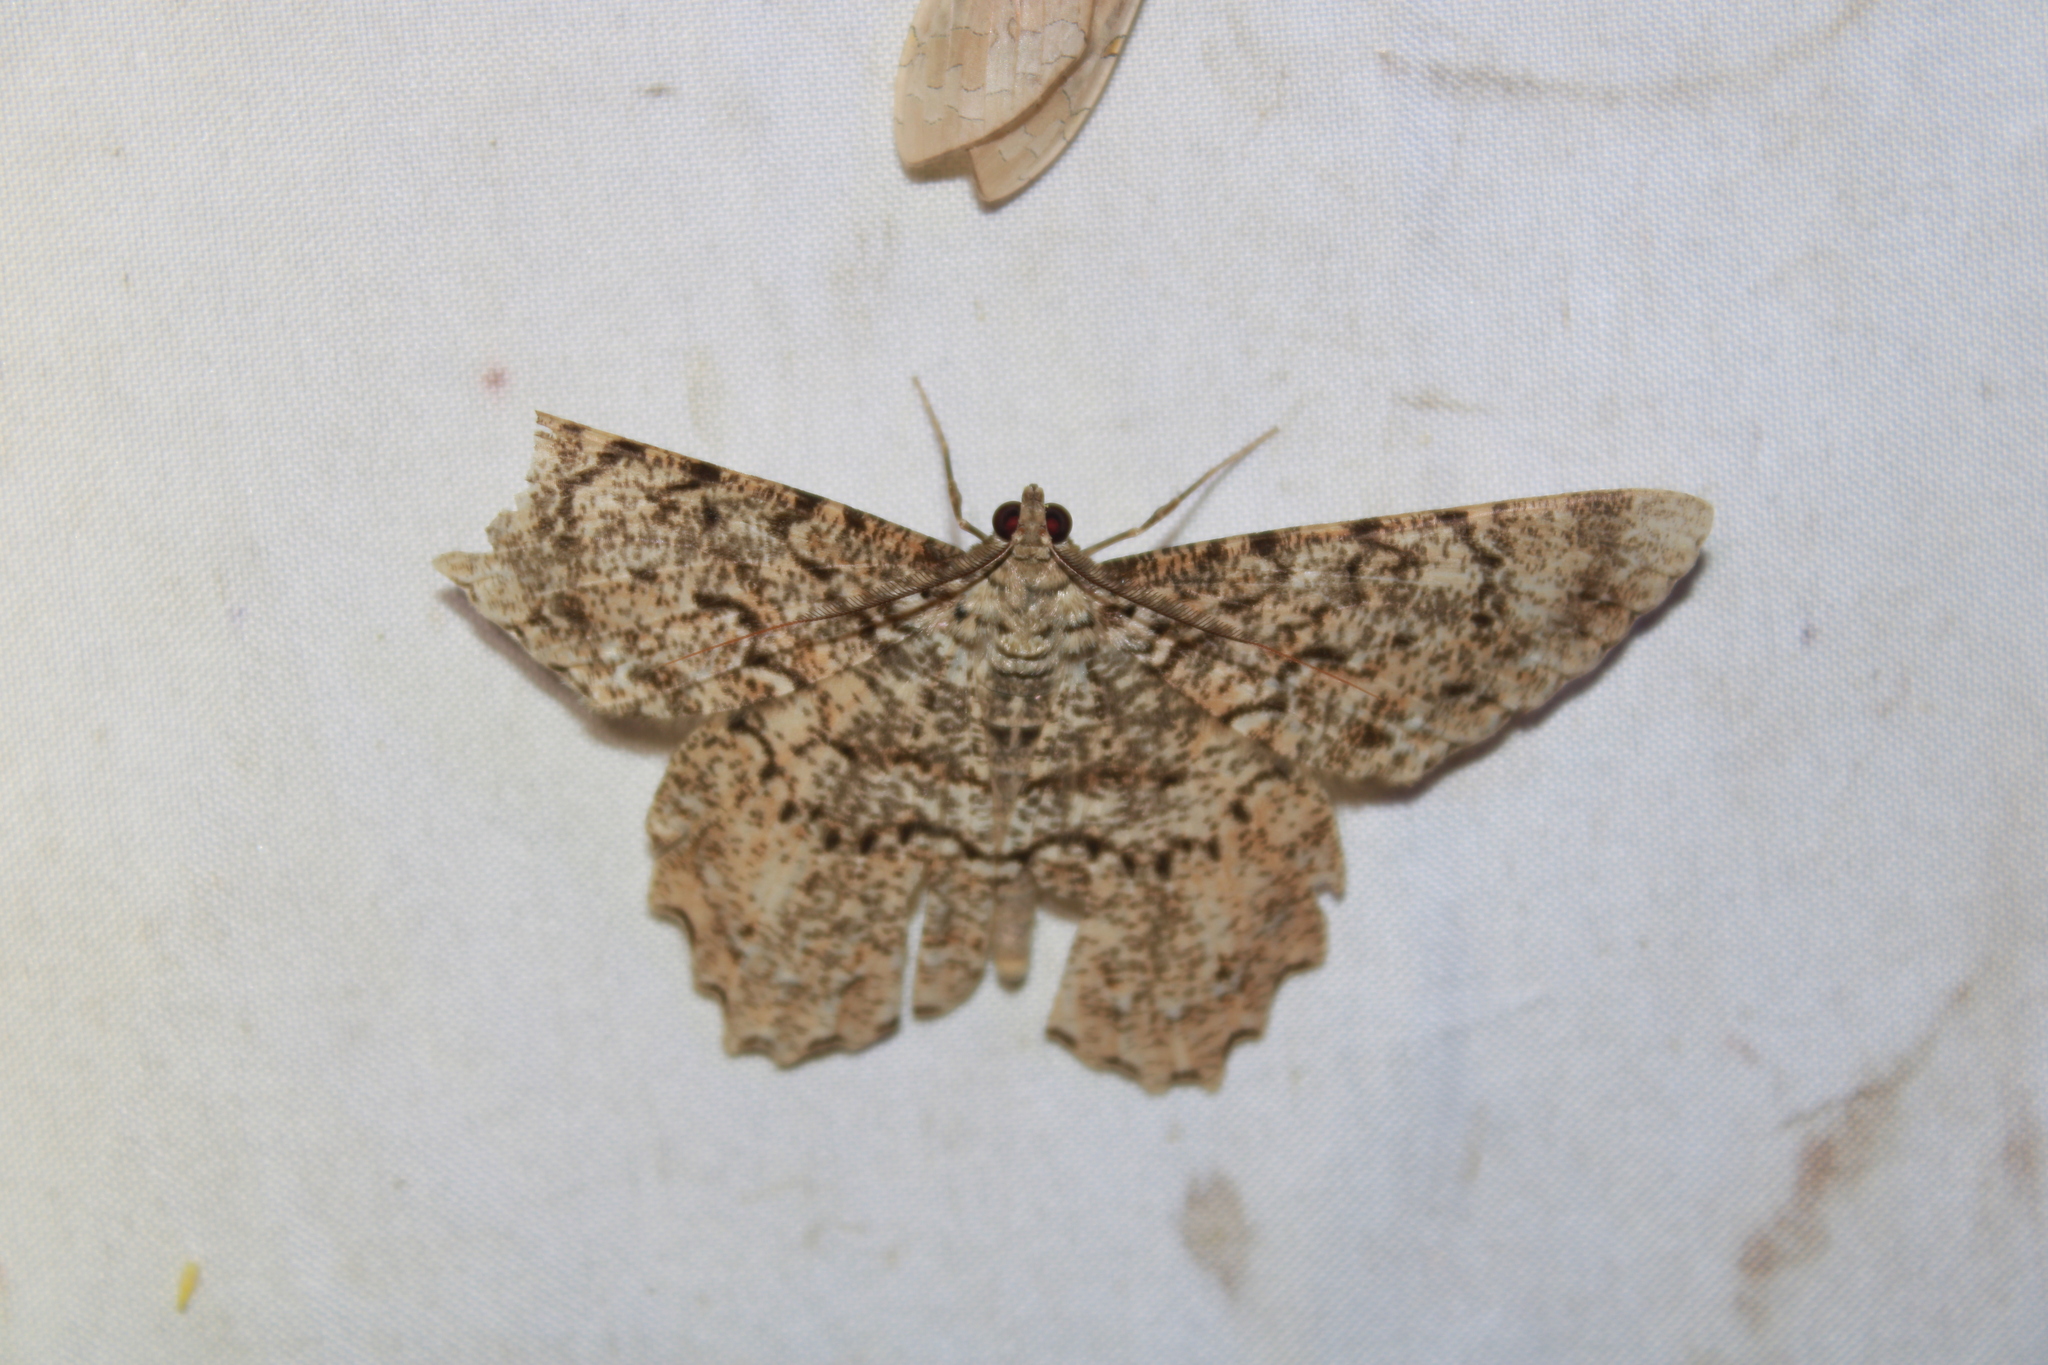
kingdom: Animalia
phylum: Arthropoda
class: Insecta
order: Lepidoptera
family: Geometridae
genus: Epimecis
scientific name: Epimecis matronaria
